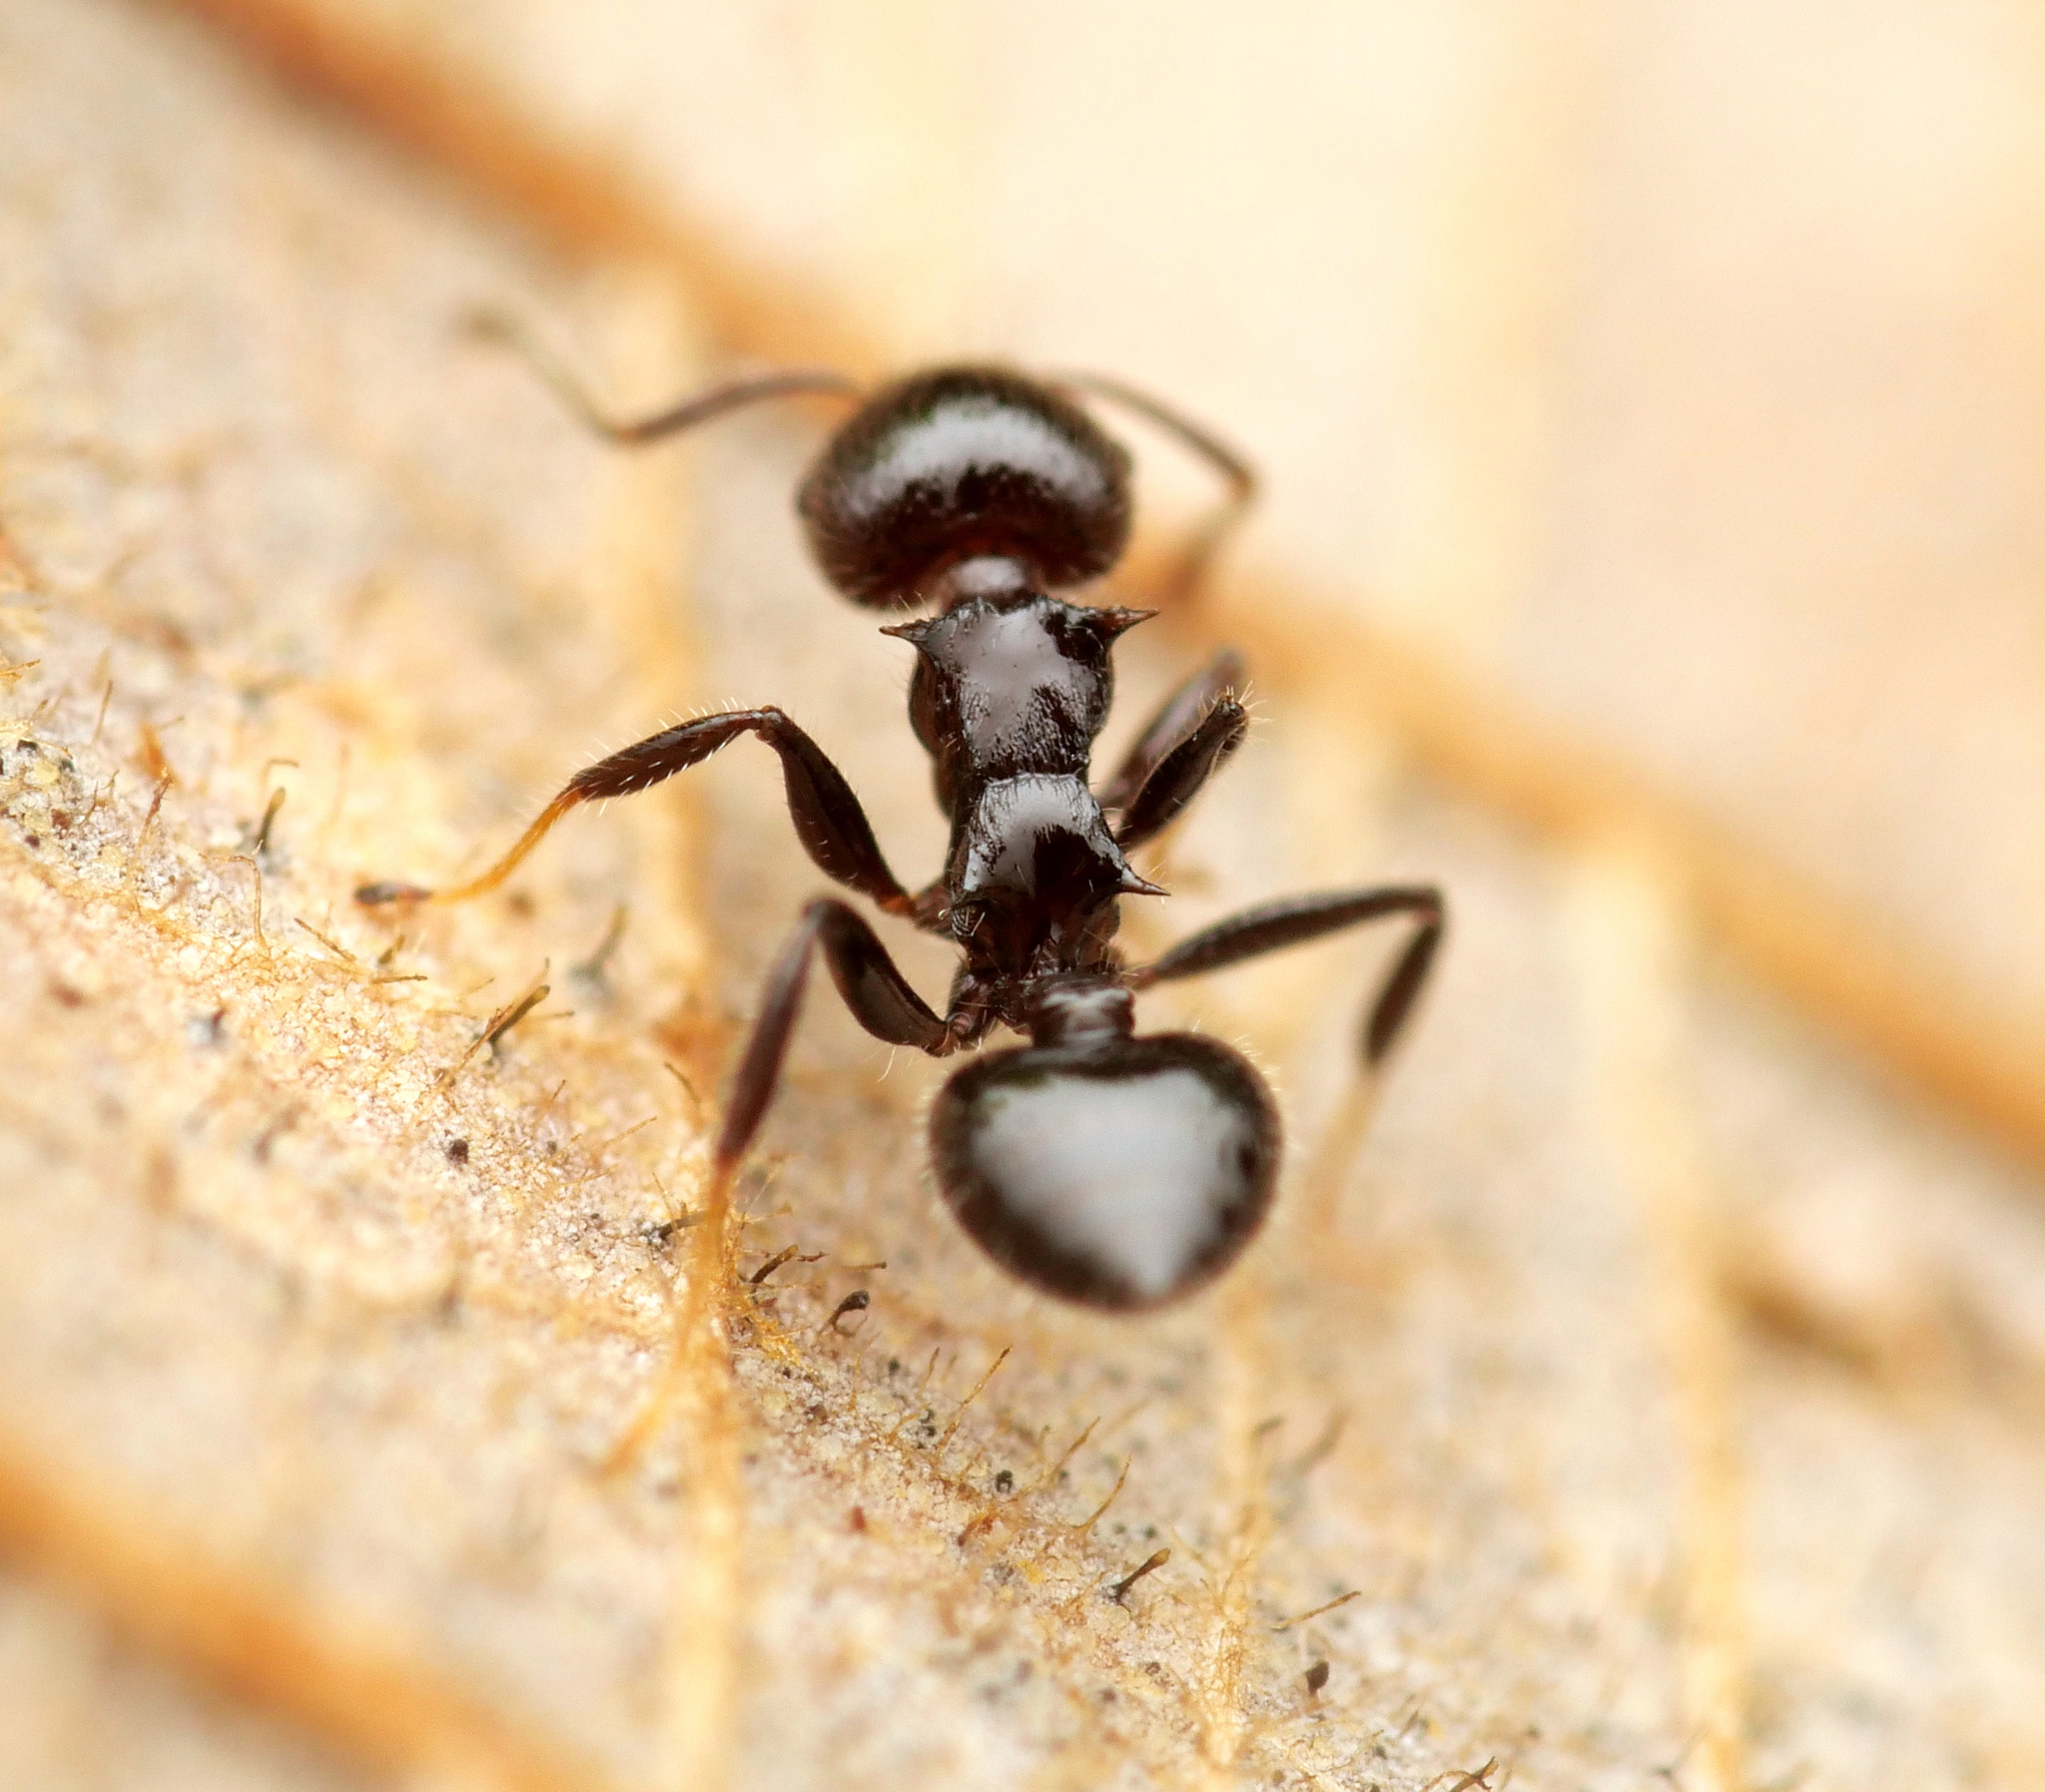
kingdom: Animalia
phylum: Arthropoda
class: Insecta
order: Hymenoptera
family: Formicidae
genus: Crematogaster
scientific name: Crematogaster flavitarsis
